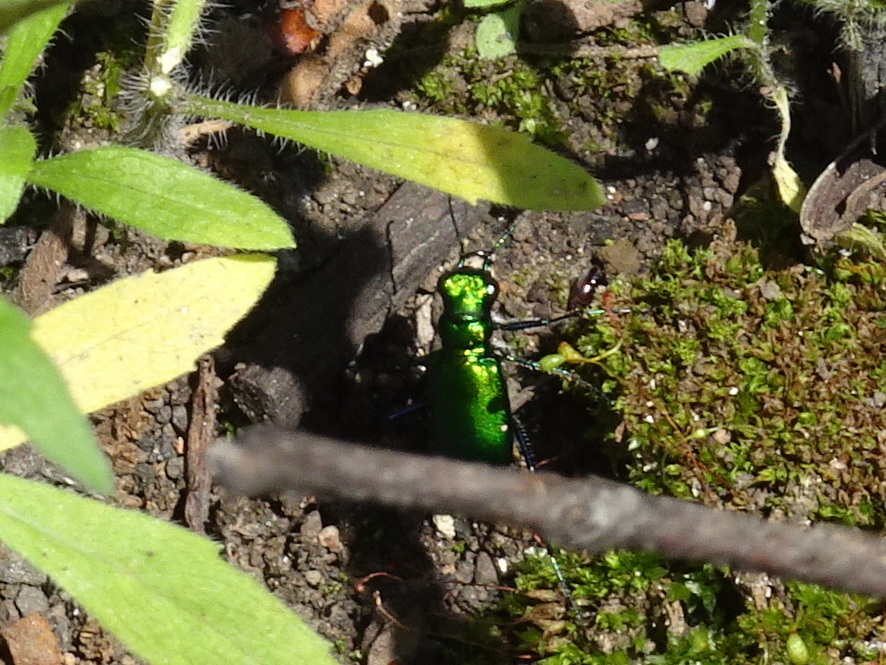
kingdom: Animalia
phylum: Arthropoda
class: Insecta
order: Coleoptera
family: Carabidae
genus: Cicindela
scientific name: Cicindela sexguttata
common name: Six-spotted tiger beetle
